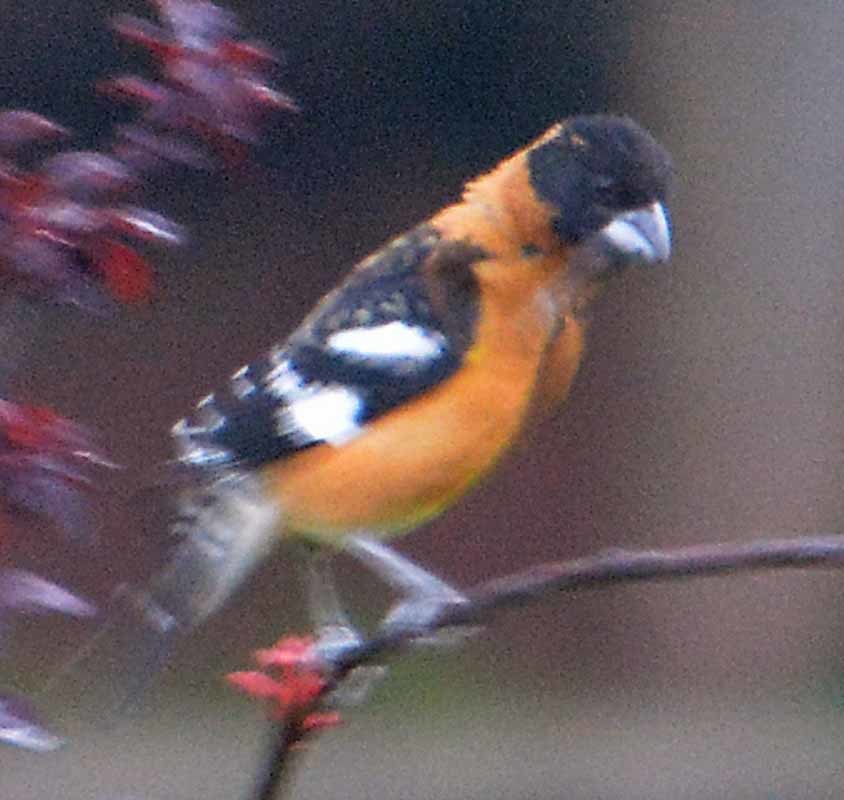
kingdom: Animalia
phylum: Chordata
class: Aves
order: Passeriformes
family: Cardinalidae
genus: Pheucticus
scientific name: Pheucticus melanocephalus
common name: Black-headed grosbeak
